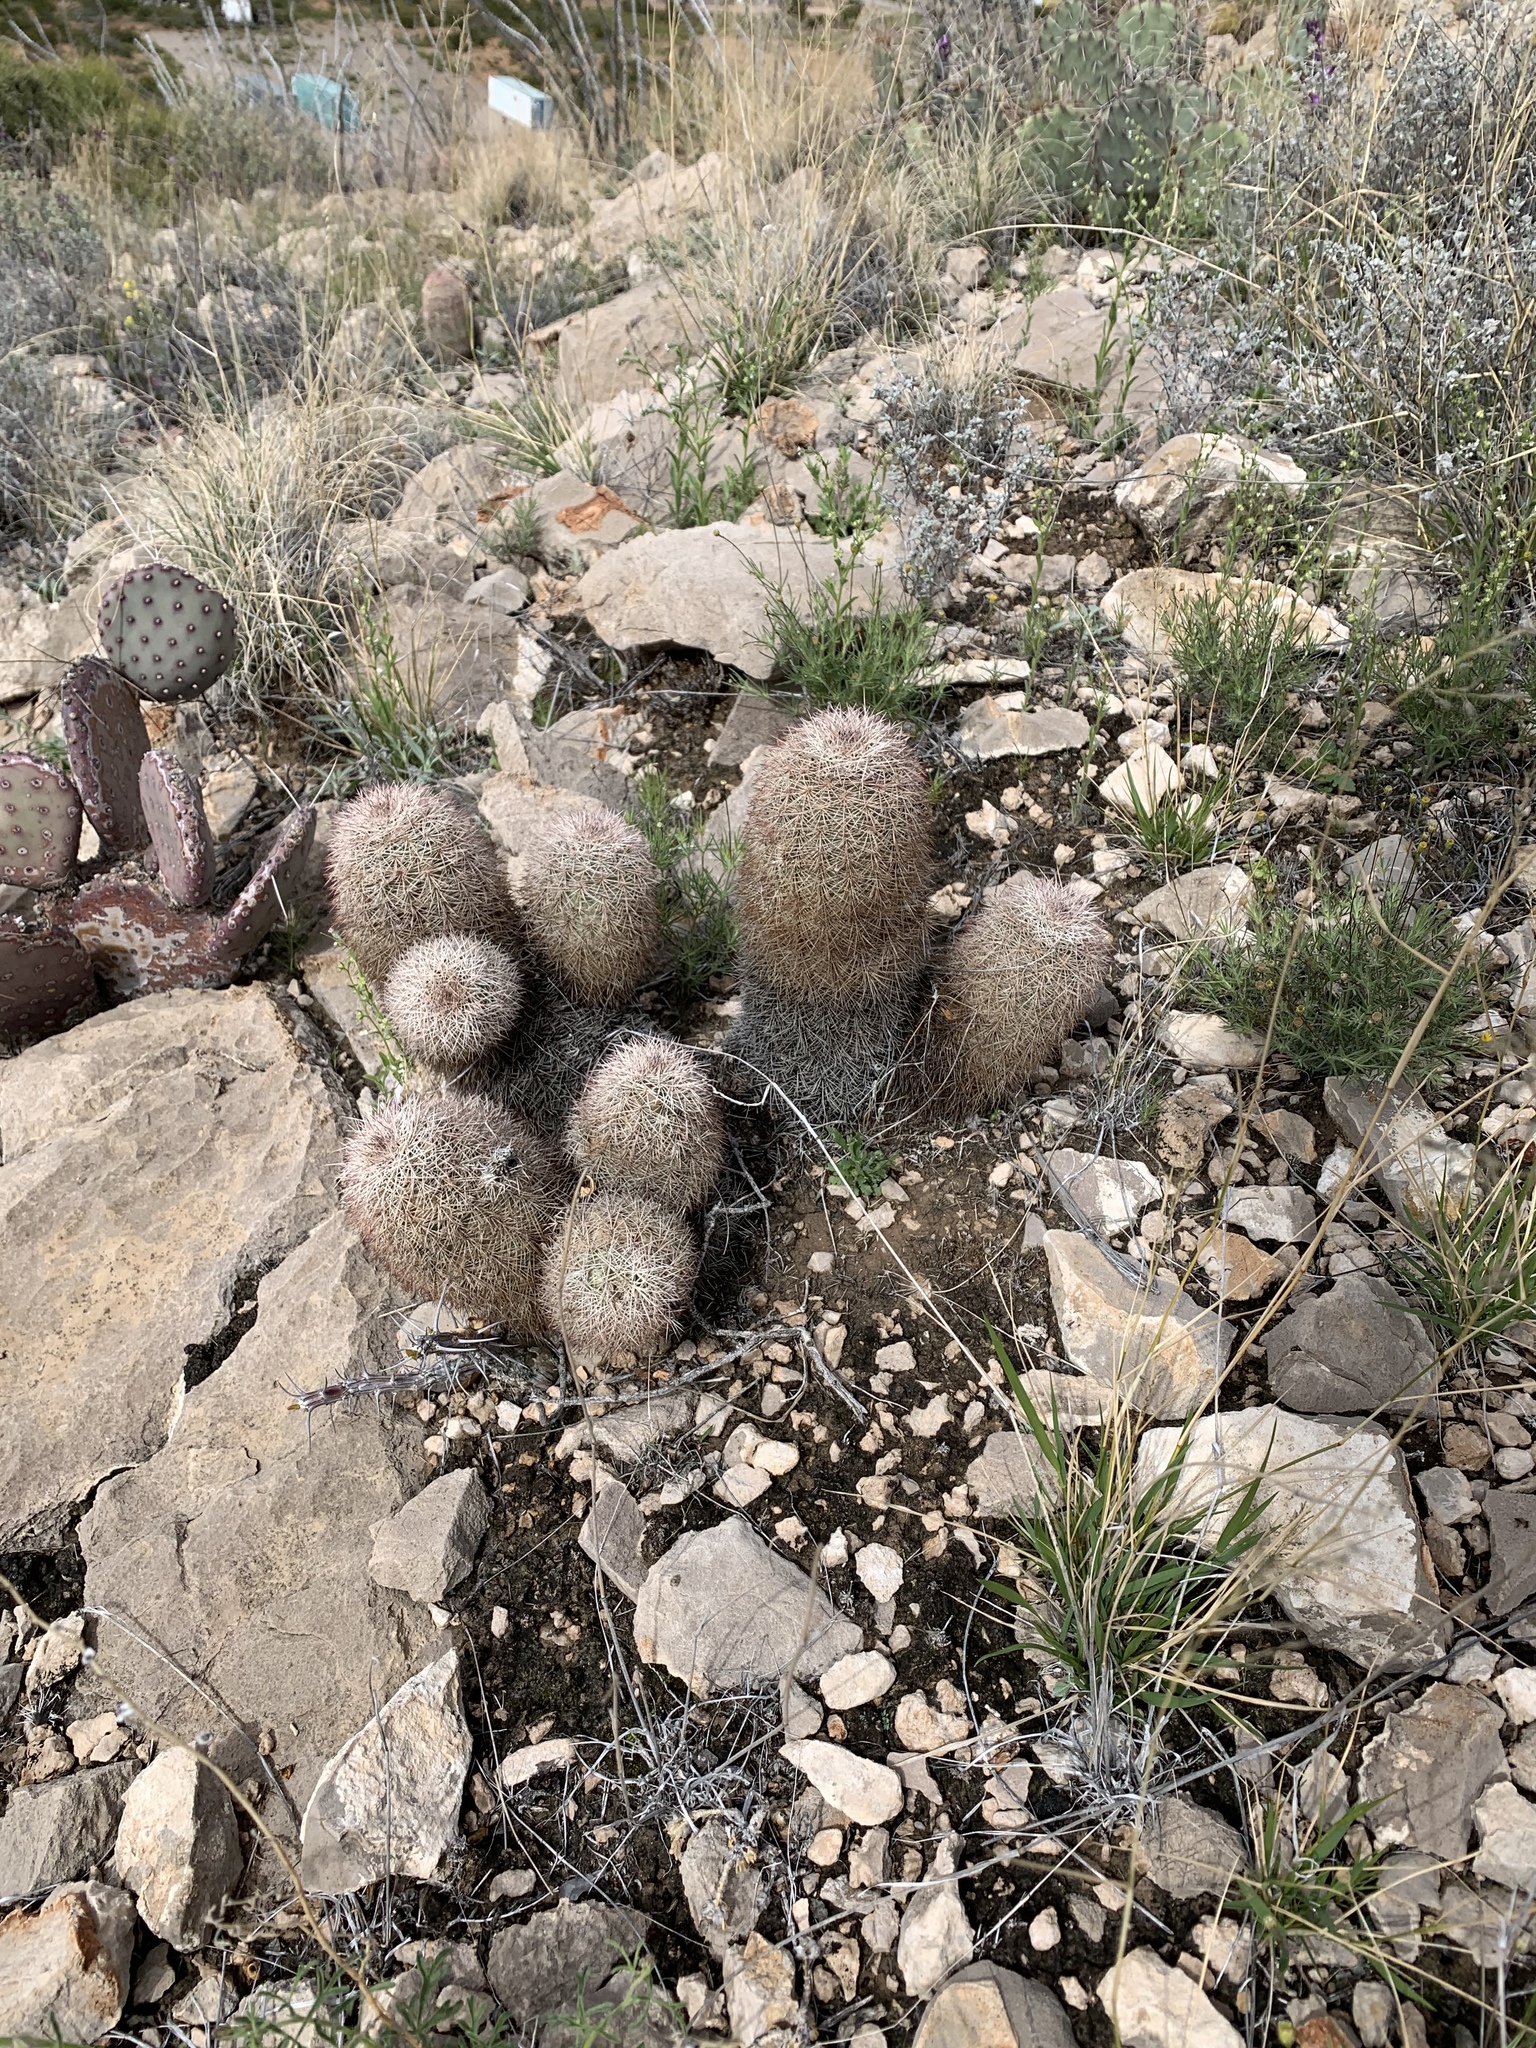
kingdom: Plantae
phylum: Tracheophyta
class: Magnoliopsida
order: Caryophyllales
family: Cactaceae
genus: Echinocereus
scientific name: Echinocereus dasyacanthus
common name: Spiny hedgehog cactus
